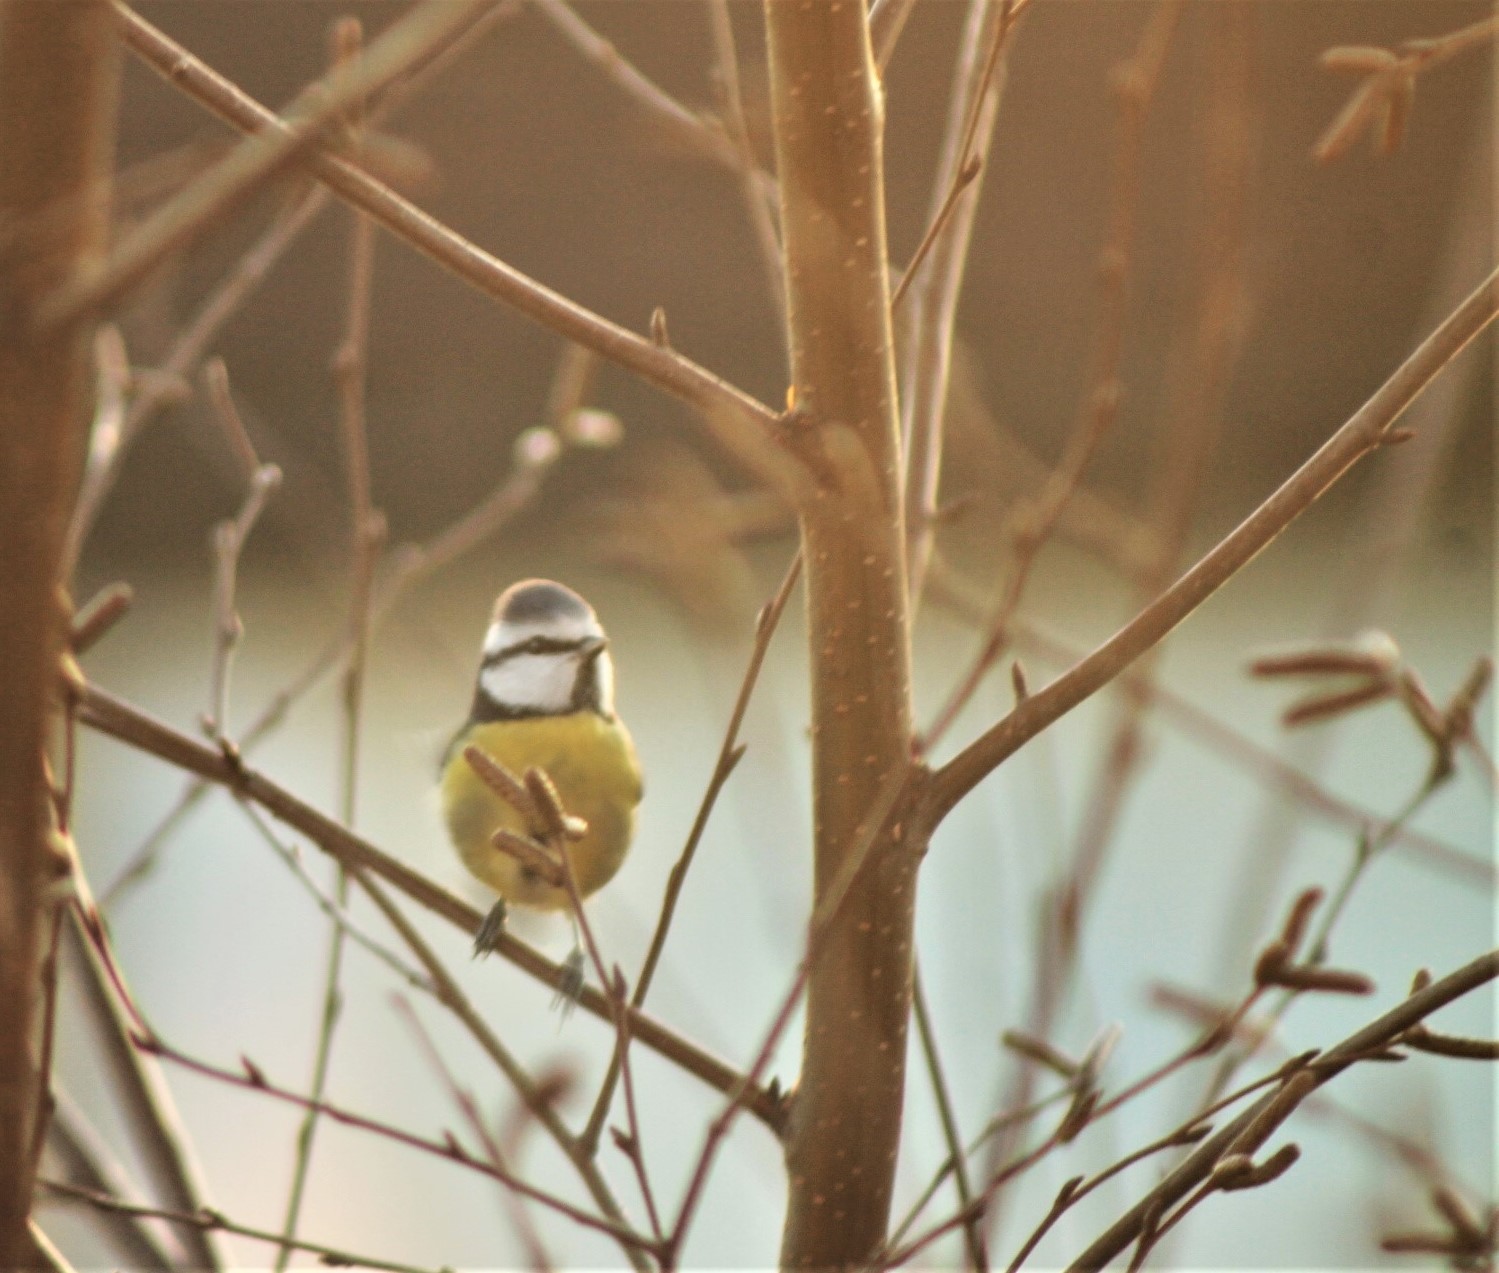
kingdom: Animalia
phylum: Chordata
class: Aves
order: Passeriformes
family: Paridae
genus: Cyanistes
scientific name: Cyanistes caeruleus
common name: Eurasian blue tit
